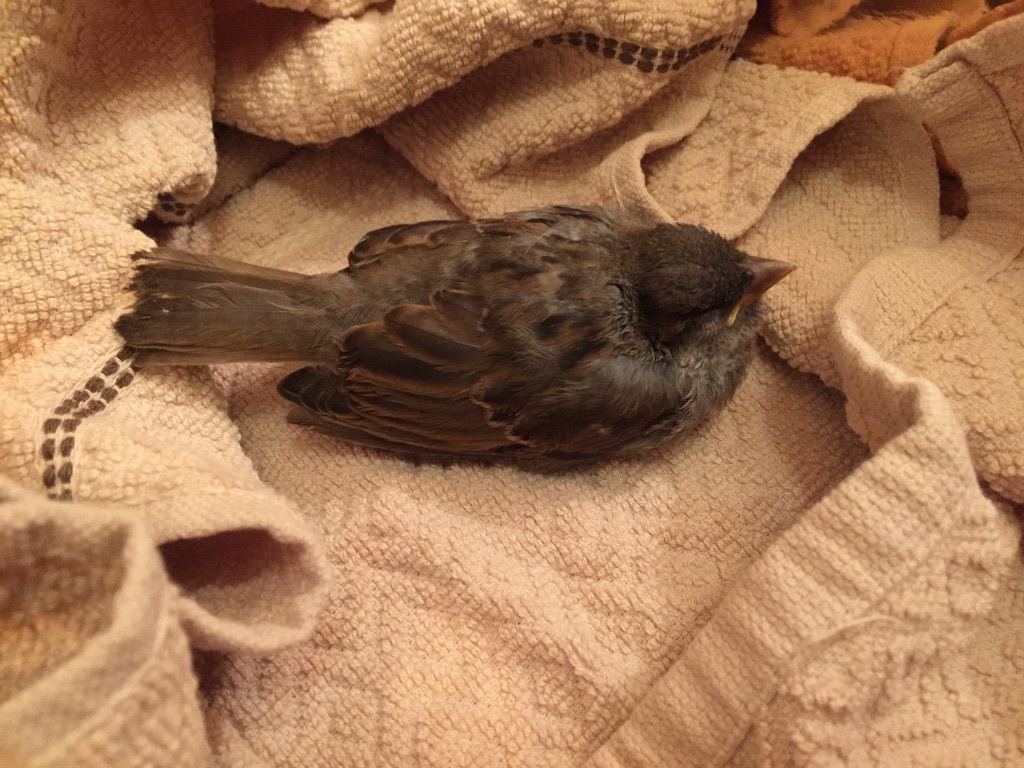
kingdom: Animalia
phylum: Chordata
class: Aves
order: Passeriformes
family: Passeridae
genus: Passer
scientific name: Passer domesticus
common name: House sparrow
